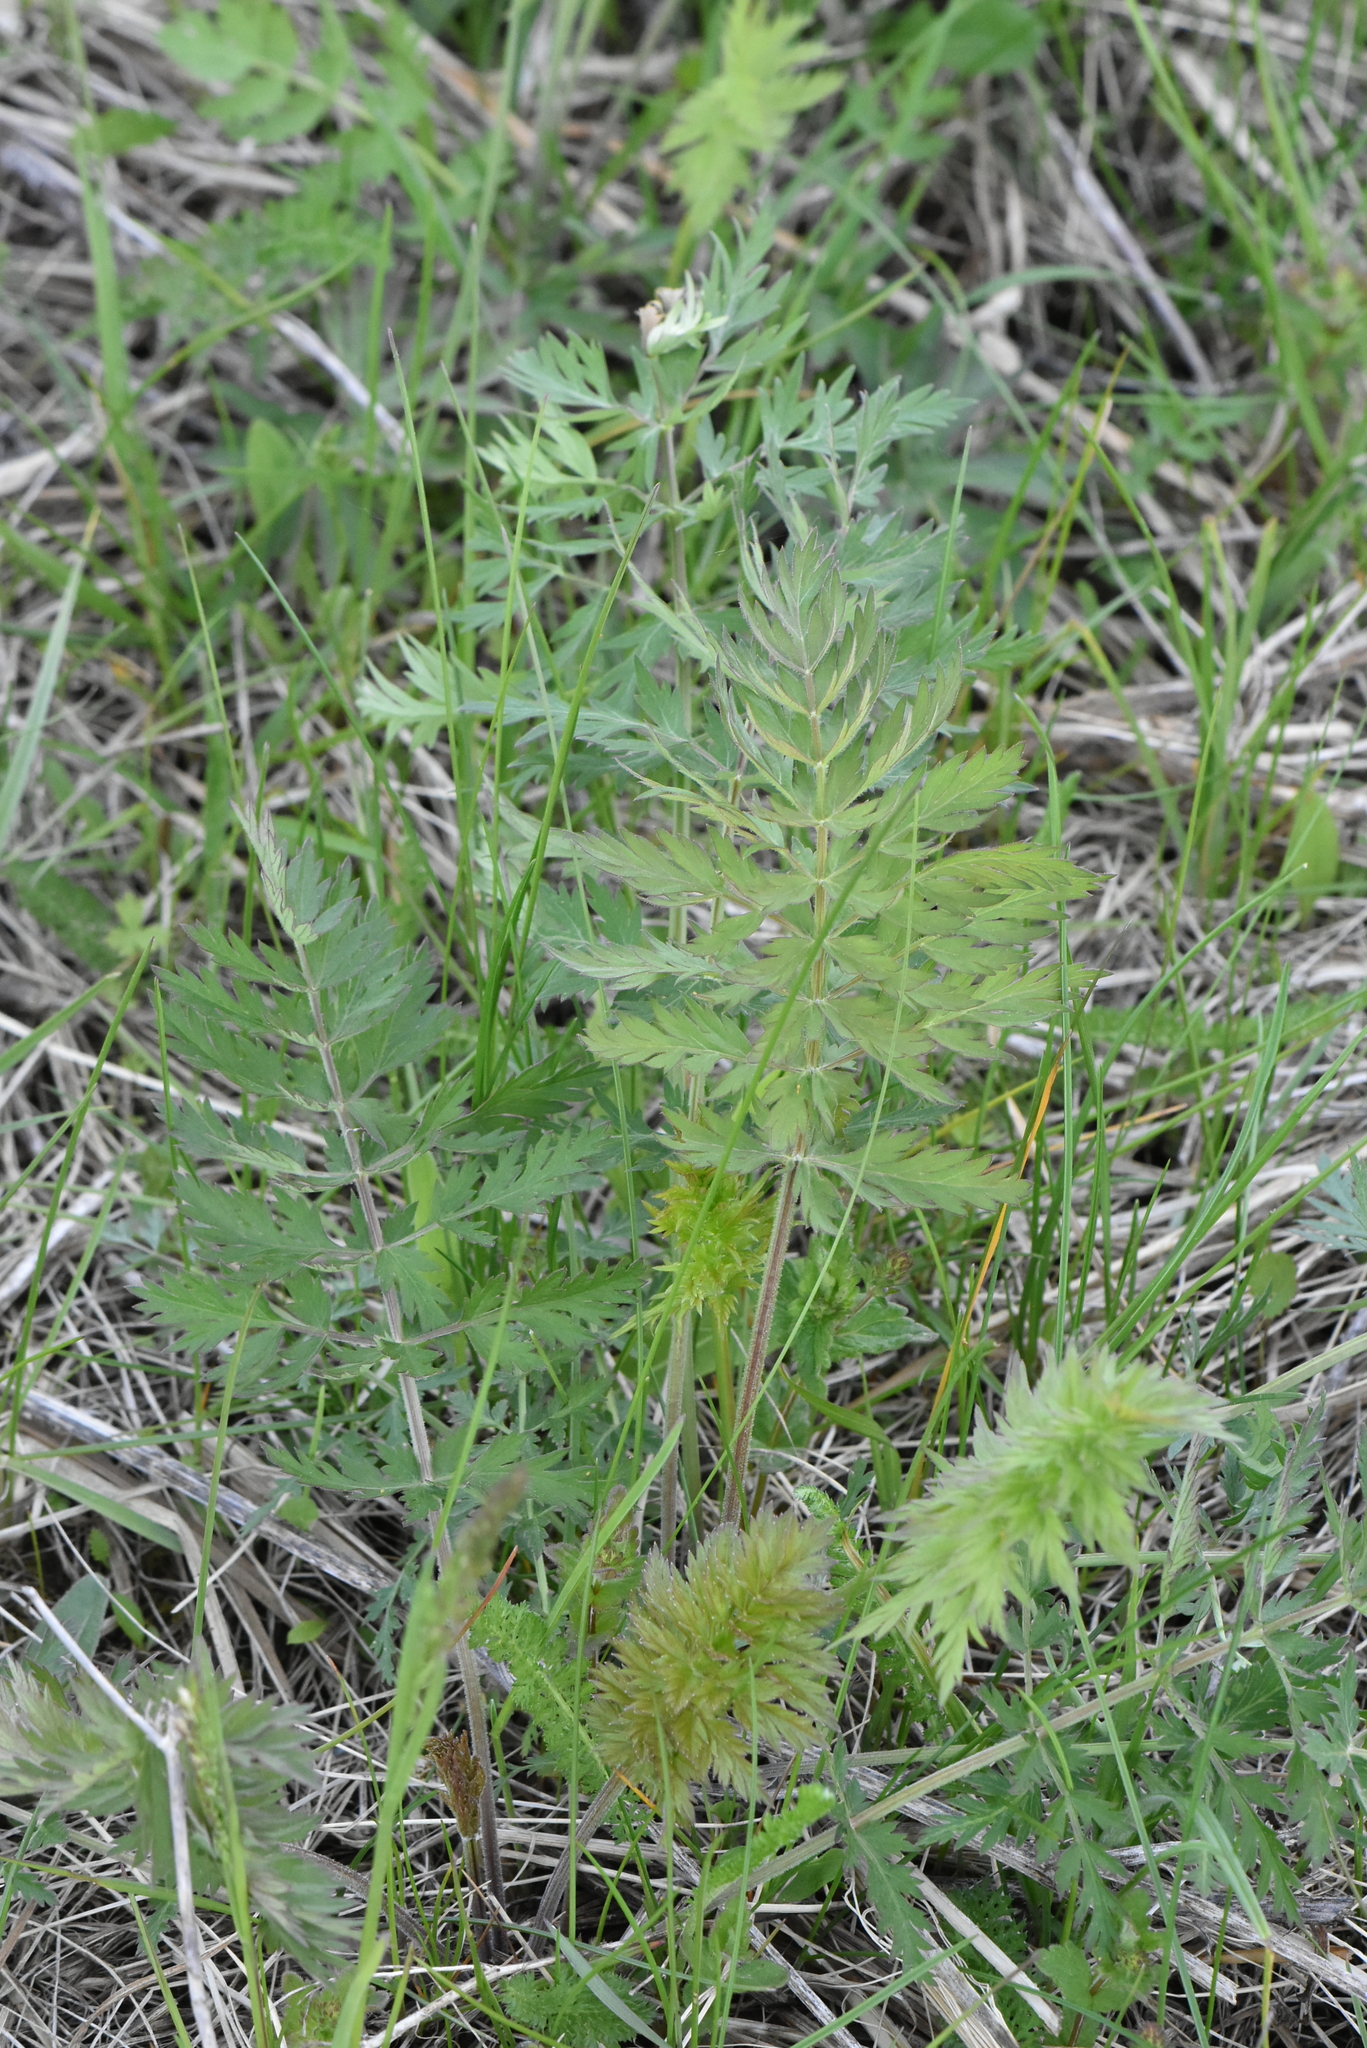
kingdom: Plantae
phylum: Tracheophyta
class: Magnoliopsida
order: Apiales
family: Apiaceae
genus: Seseli
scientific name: Seseli libanotis
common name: Mooncarrot
